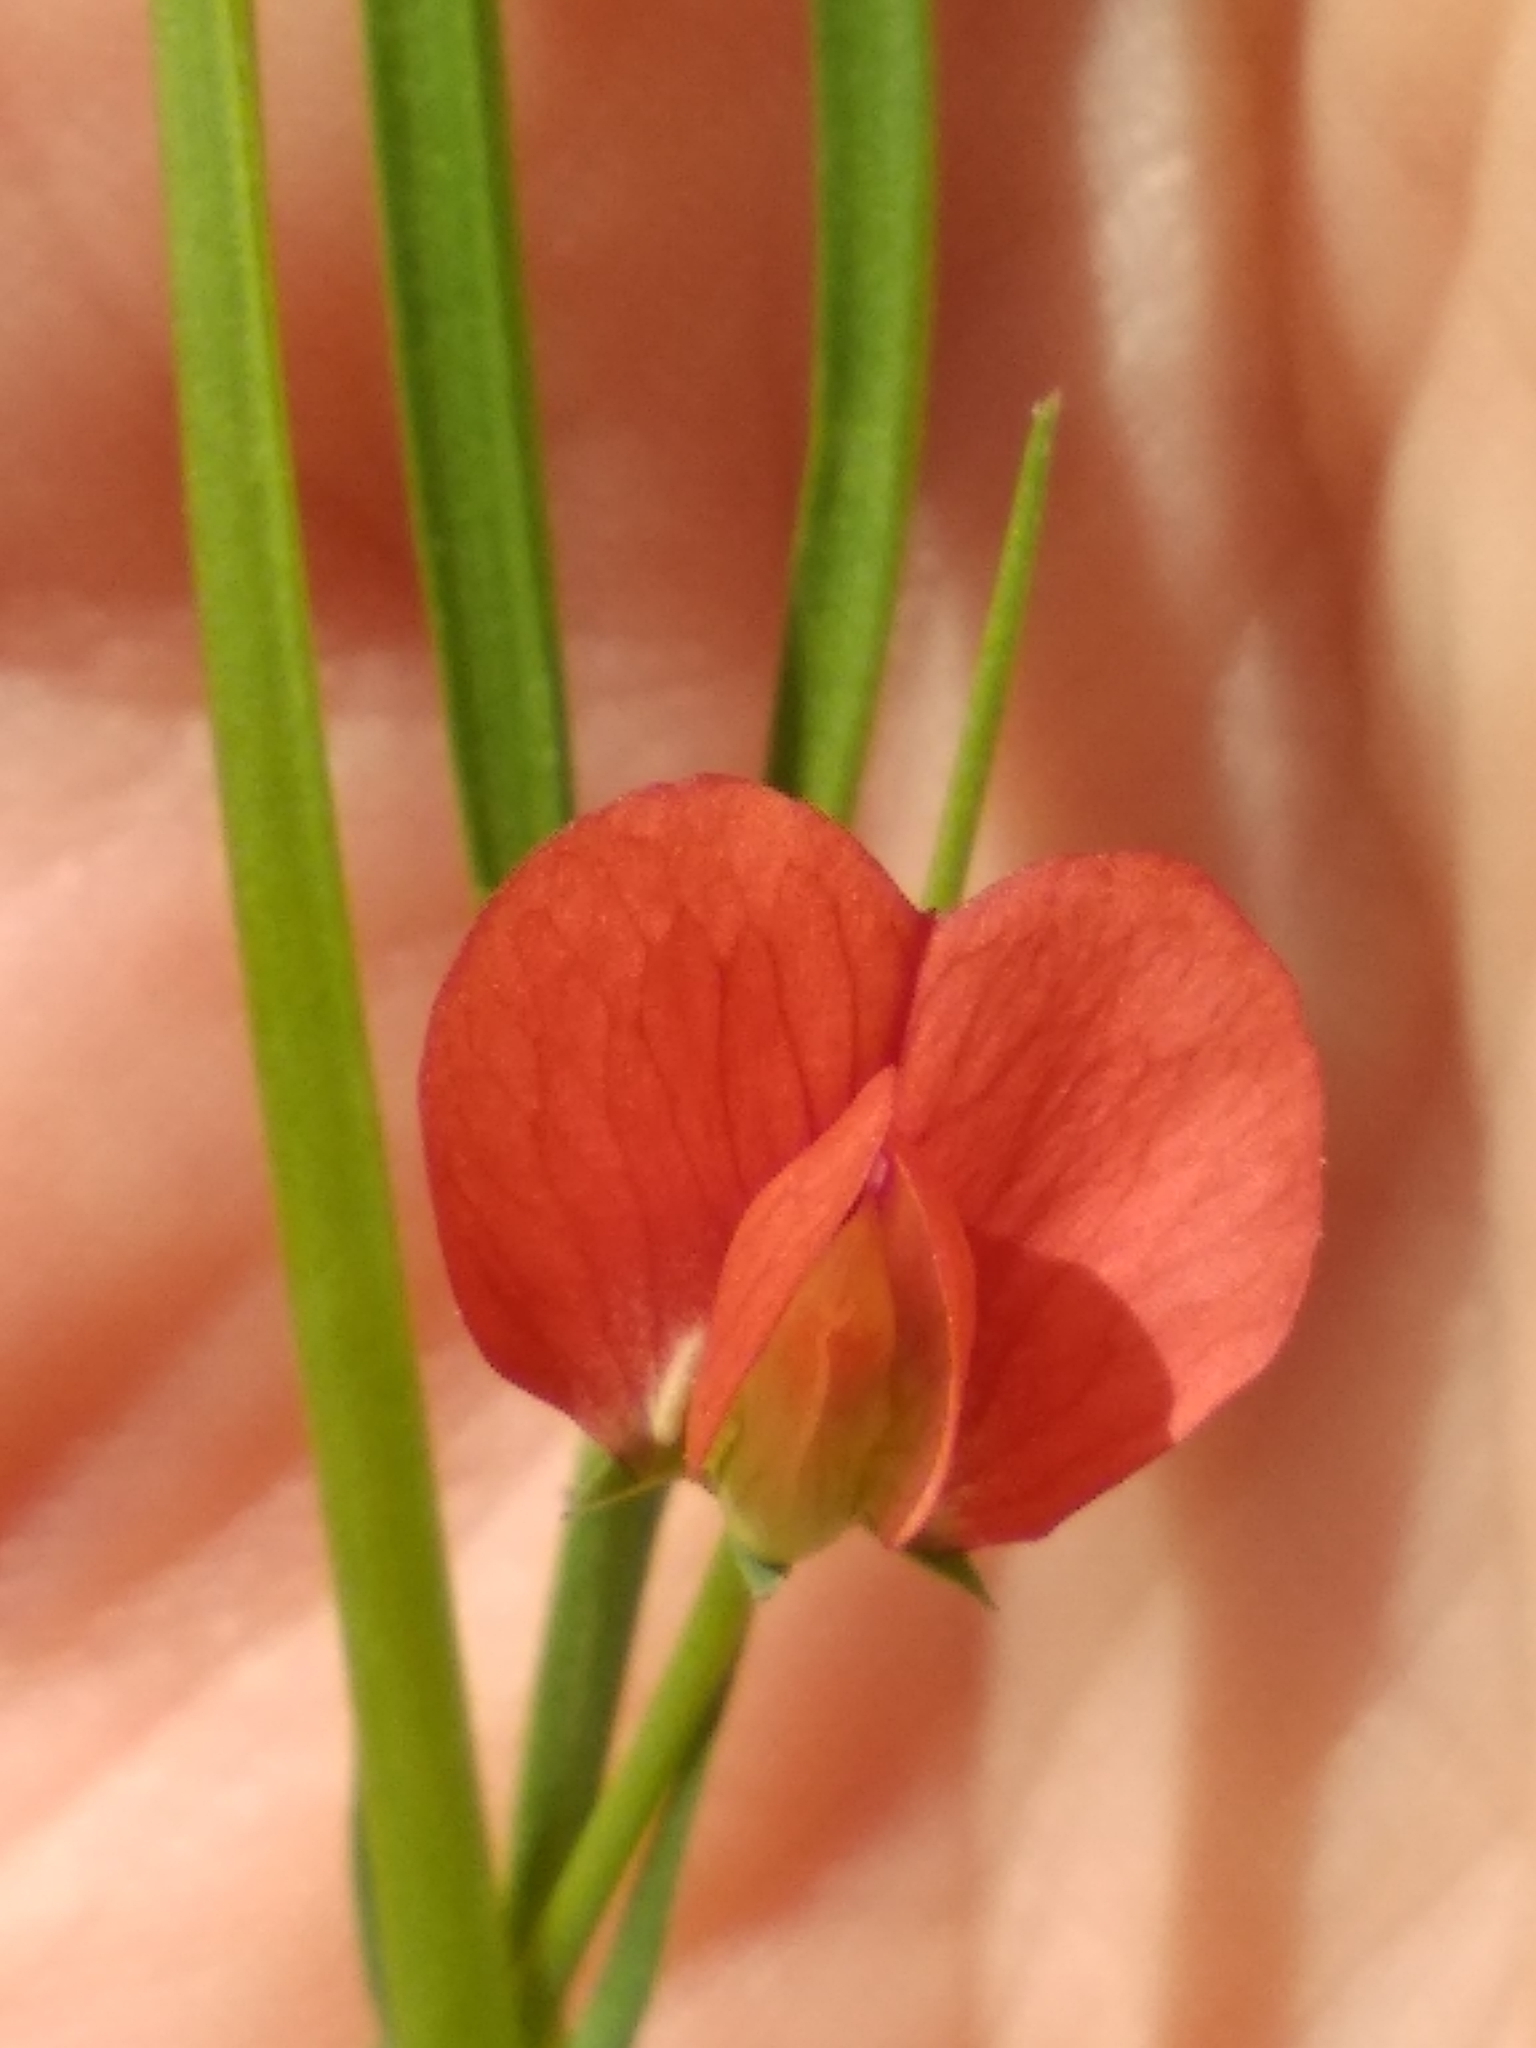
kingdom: Plantae
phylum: Tracheophyta
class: Magnoliopsida
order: Fabales
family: Fabaceae
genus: Lathyrus
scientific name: Lathyrus sphaericus
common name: Grass pea
